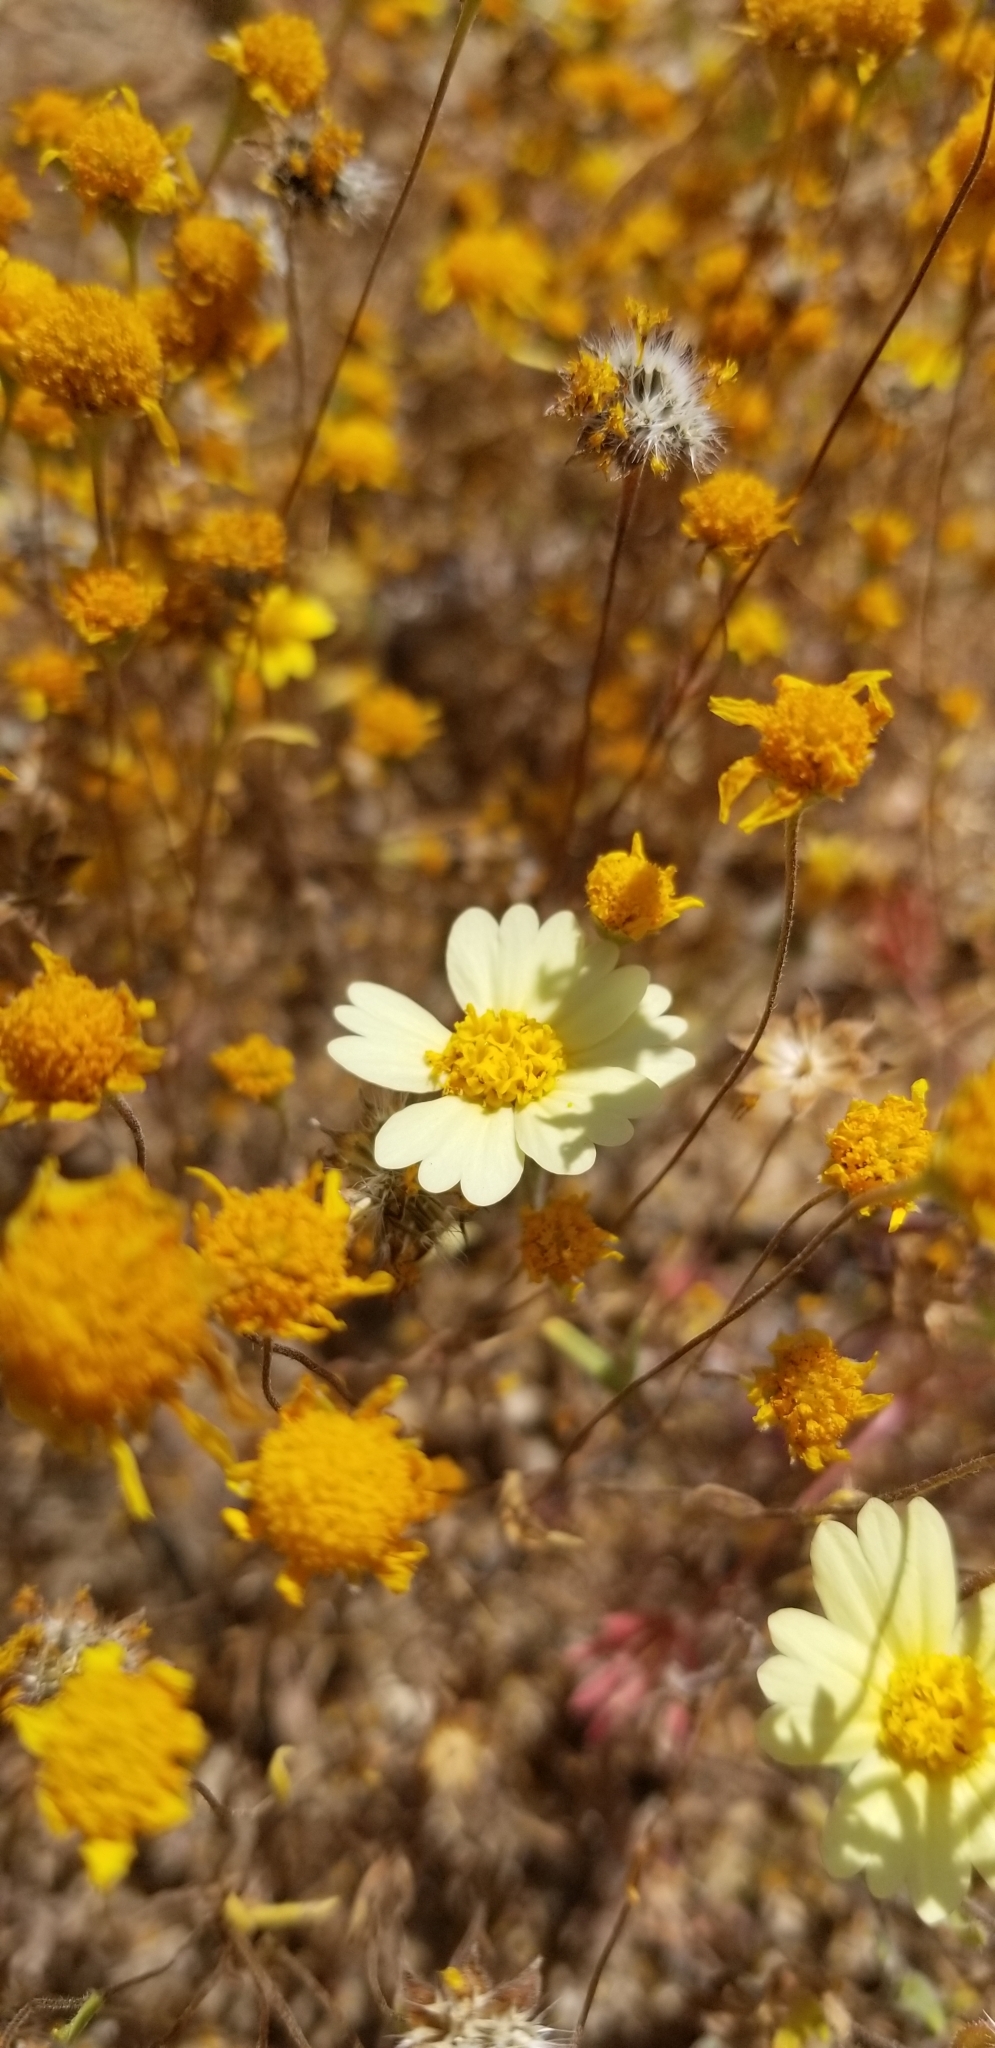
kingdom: Plantae
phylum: Tracheophyta
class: Magnoliopsida
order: Asterales
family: Asteraceae
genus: Layia
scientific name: Layia glandulosa
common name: White layia
